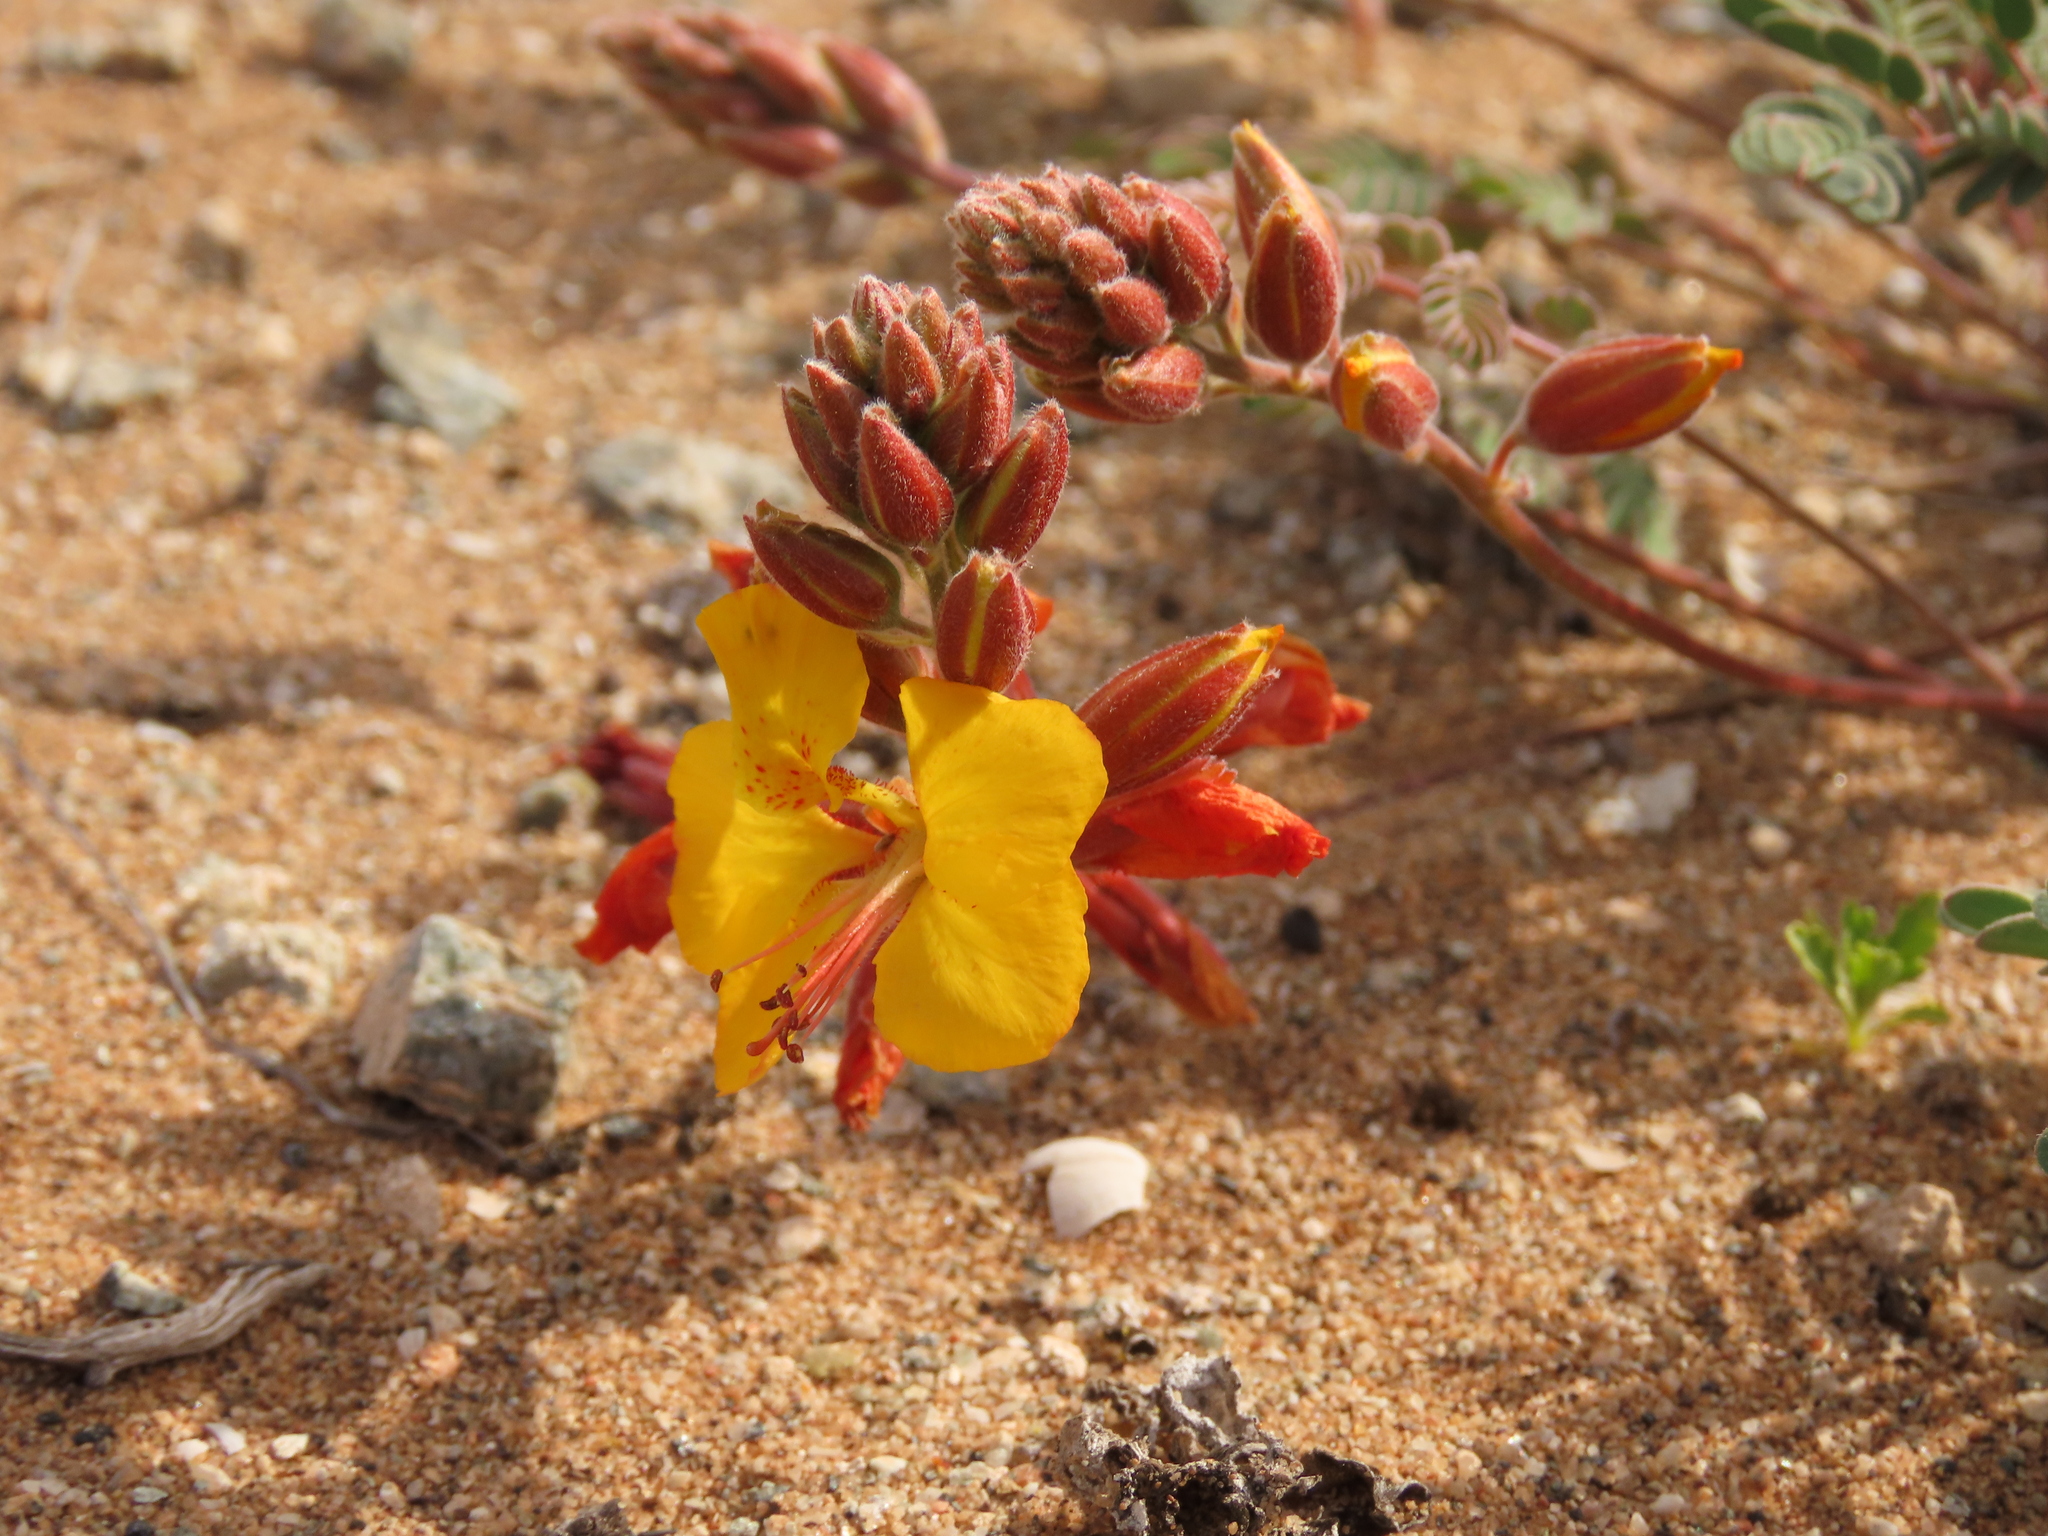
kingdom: Plantae
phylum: Tracheophyta
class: Magnoliopsida
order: Fabales
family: Fabaceae
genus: Hoffmannseggia
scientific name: Hoffmannseggia doellii
